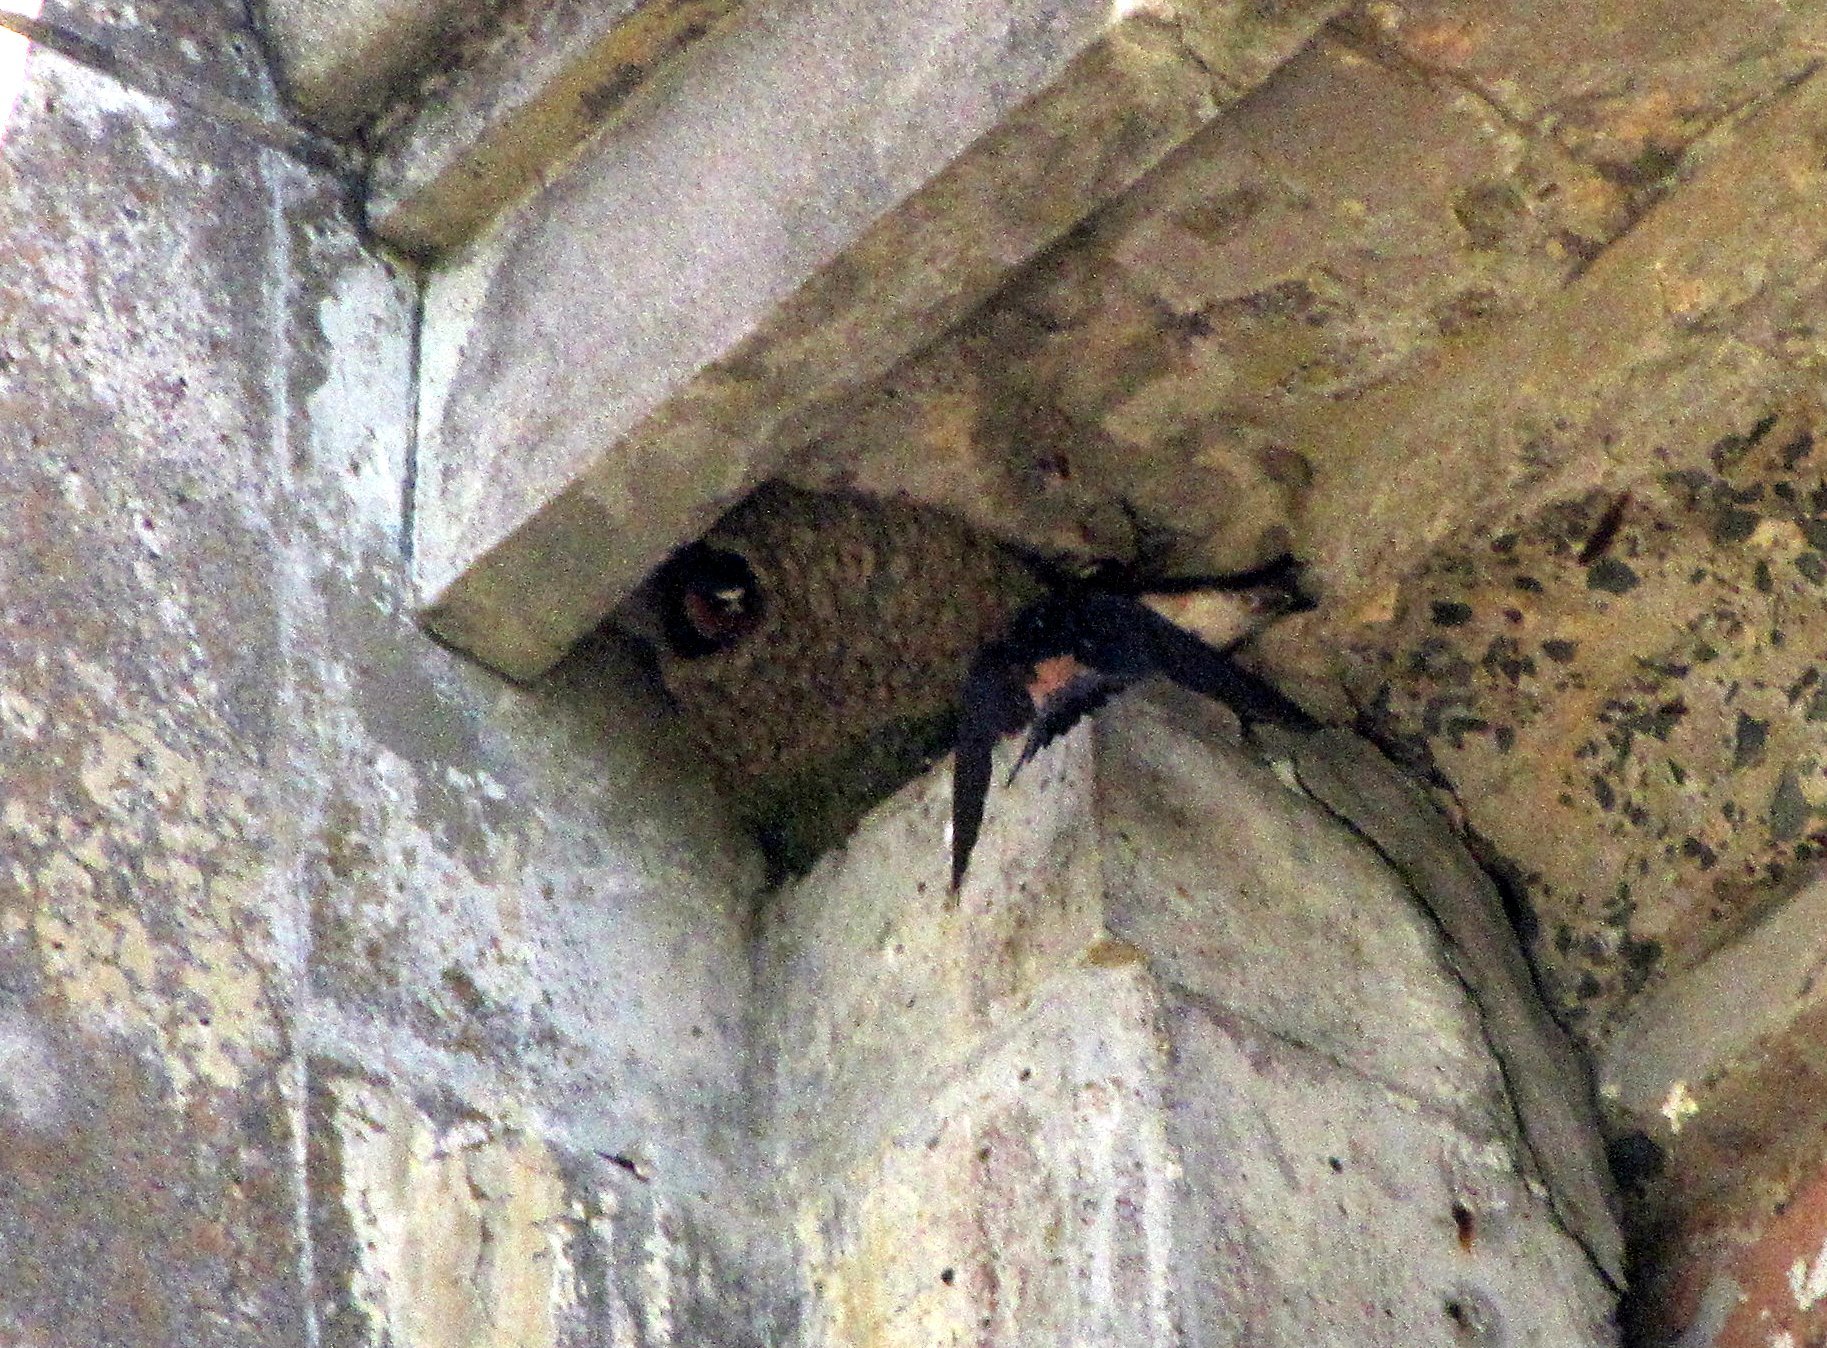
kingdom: Animalia
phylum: Chordata
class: Aves
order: Passeriformes
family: Hirundinidae
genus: Petrochelidon
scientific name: Petrochelidon pyrrhonota
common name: American cliff swallow
